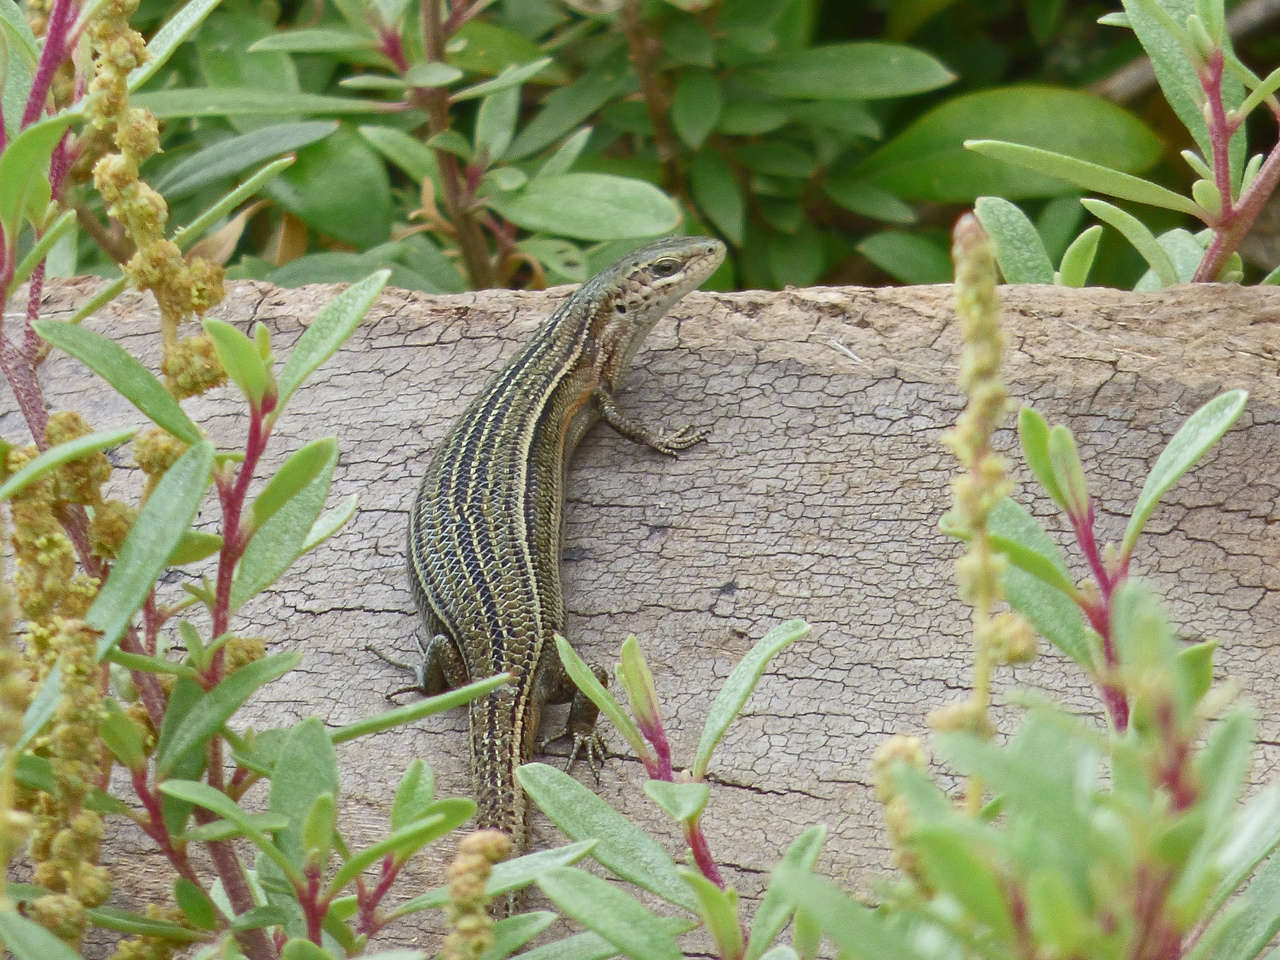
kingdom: Animalia
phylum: Chordata
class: Squamata
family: Scincidae
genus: Pseudemoia
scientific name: Pseudemoia pagenstecheri
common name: Southern grass tussock skink
